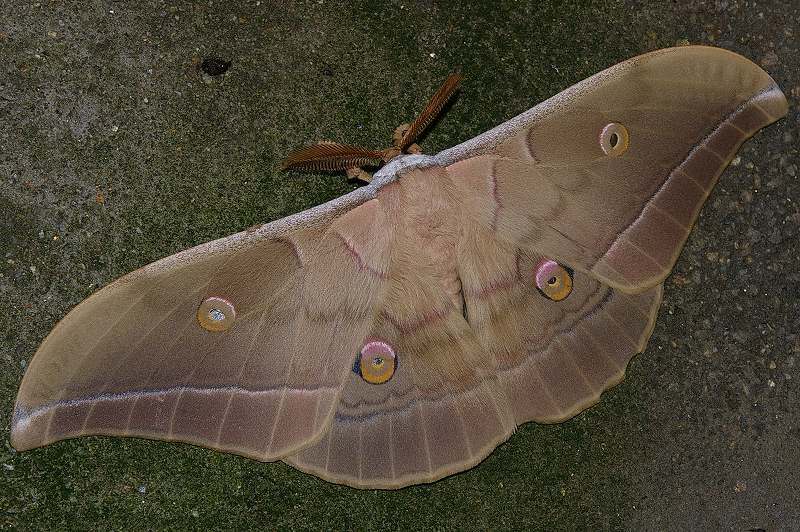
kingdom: Animalia
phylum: Arthropoda
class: Insecta
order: Lepidoptera
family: Saturniidae
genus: Antheraea
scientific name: Antheraea yamamai
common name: Japanese oak silk moth
